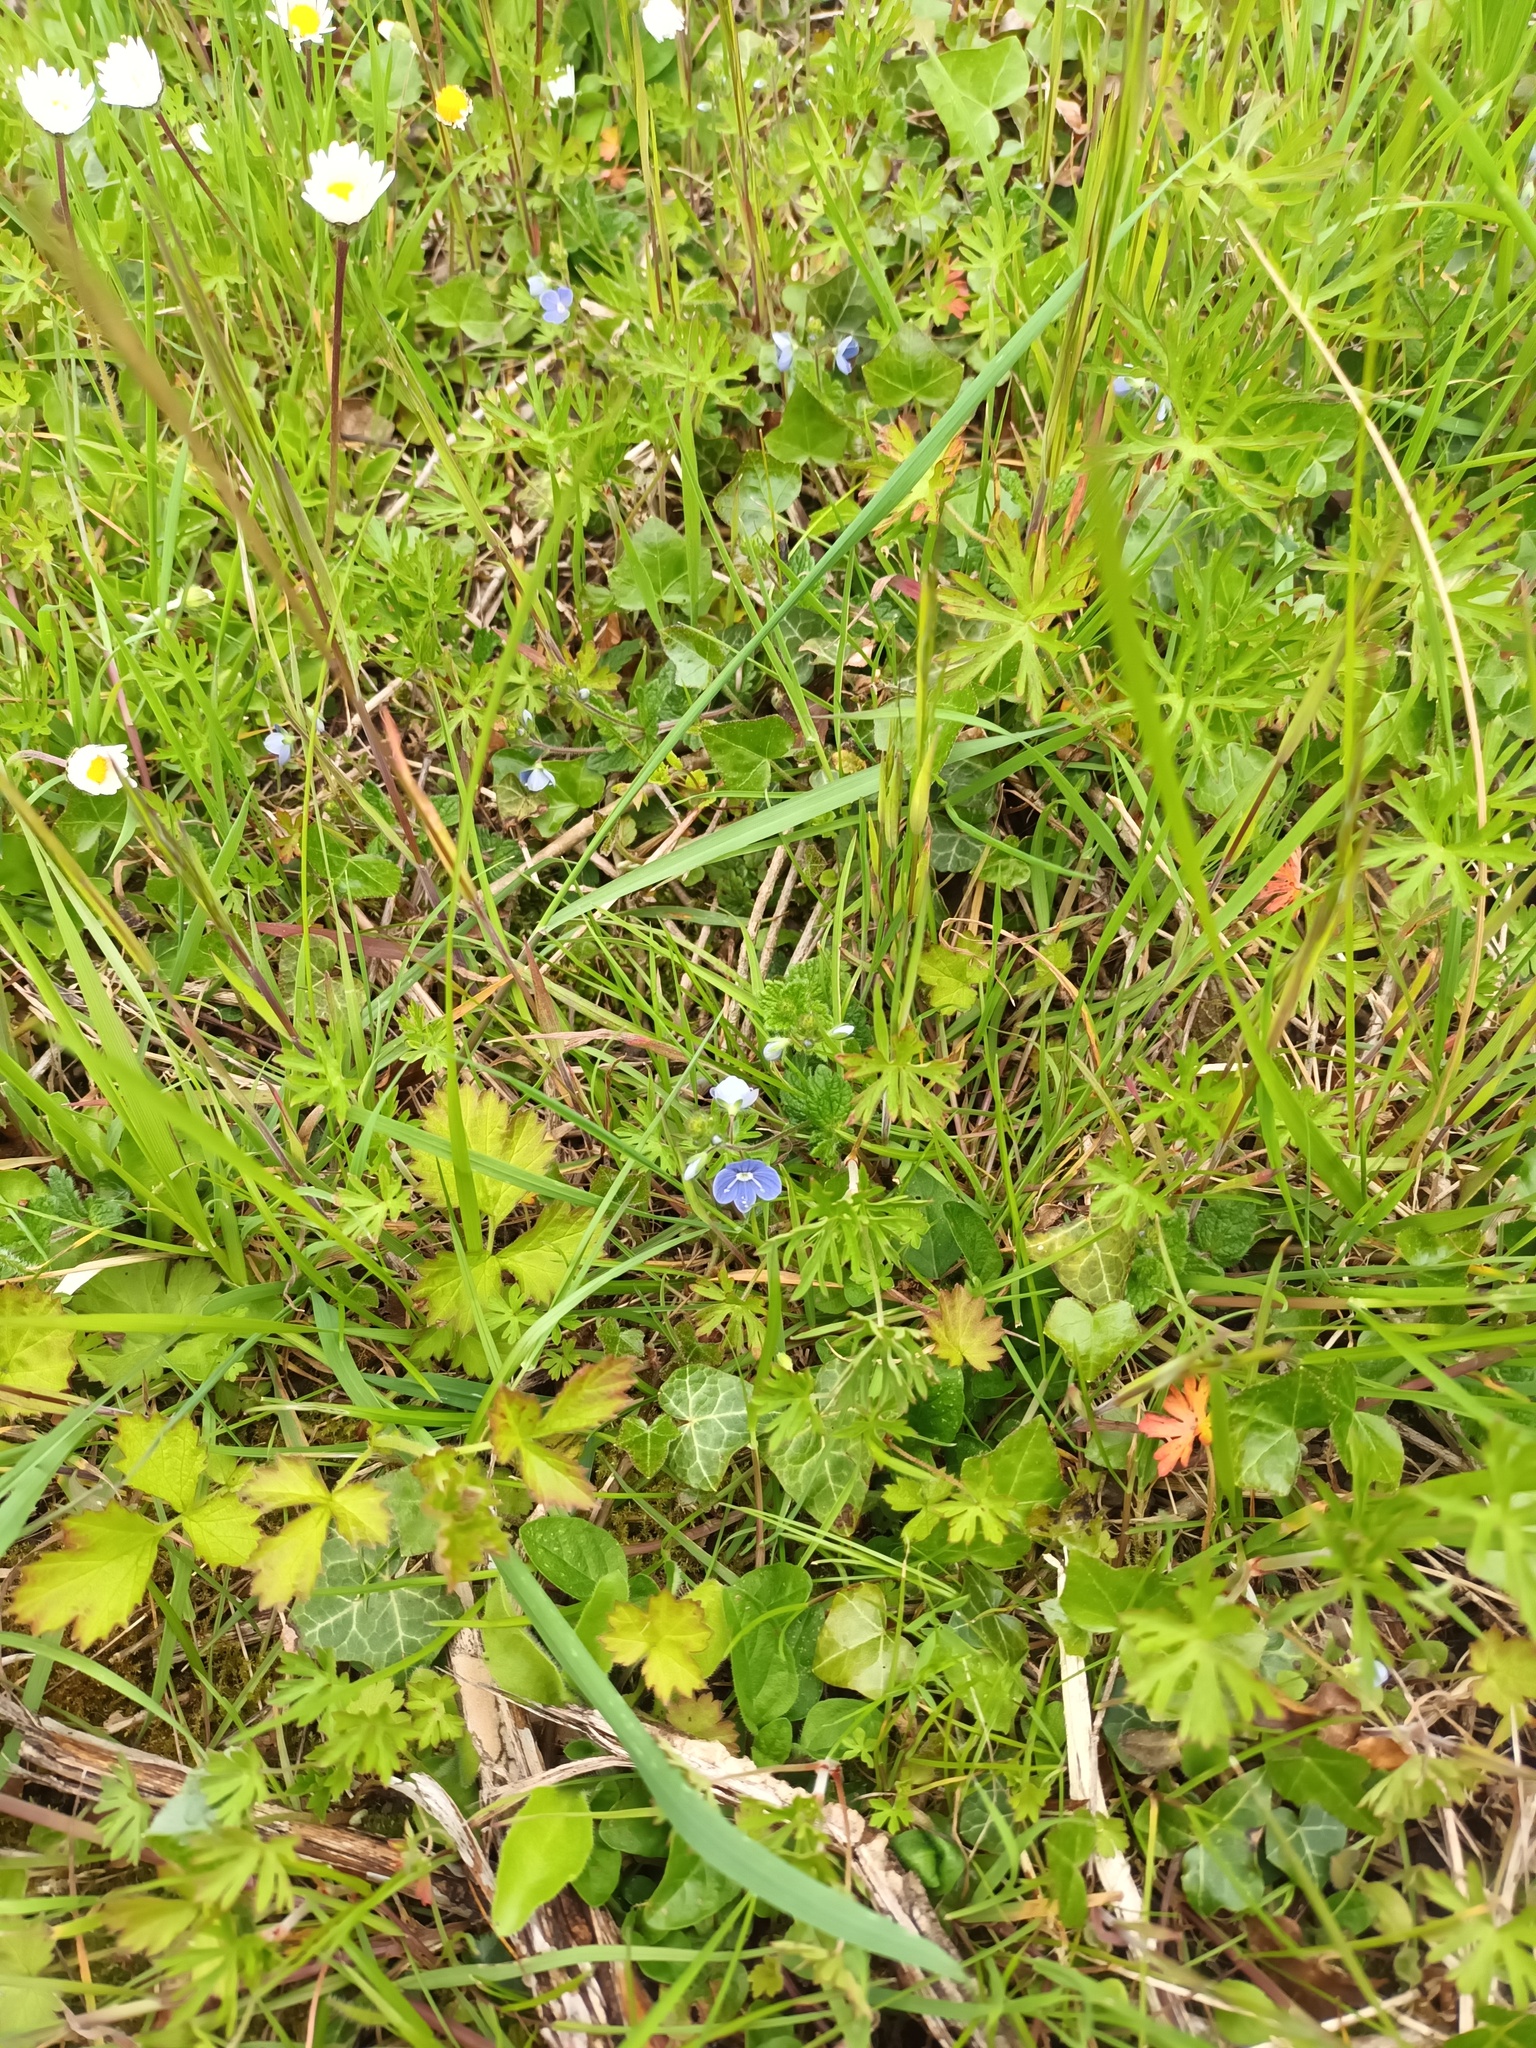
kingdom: Plantae
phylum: Tracheophyta
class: Magnoliopsida
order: Lamiales
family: Plantaginaceae
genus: Veronica
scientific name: Veronica chamaedrys
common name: Germander speedwell
